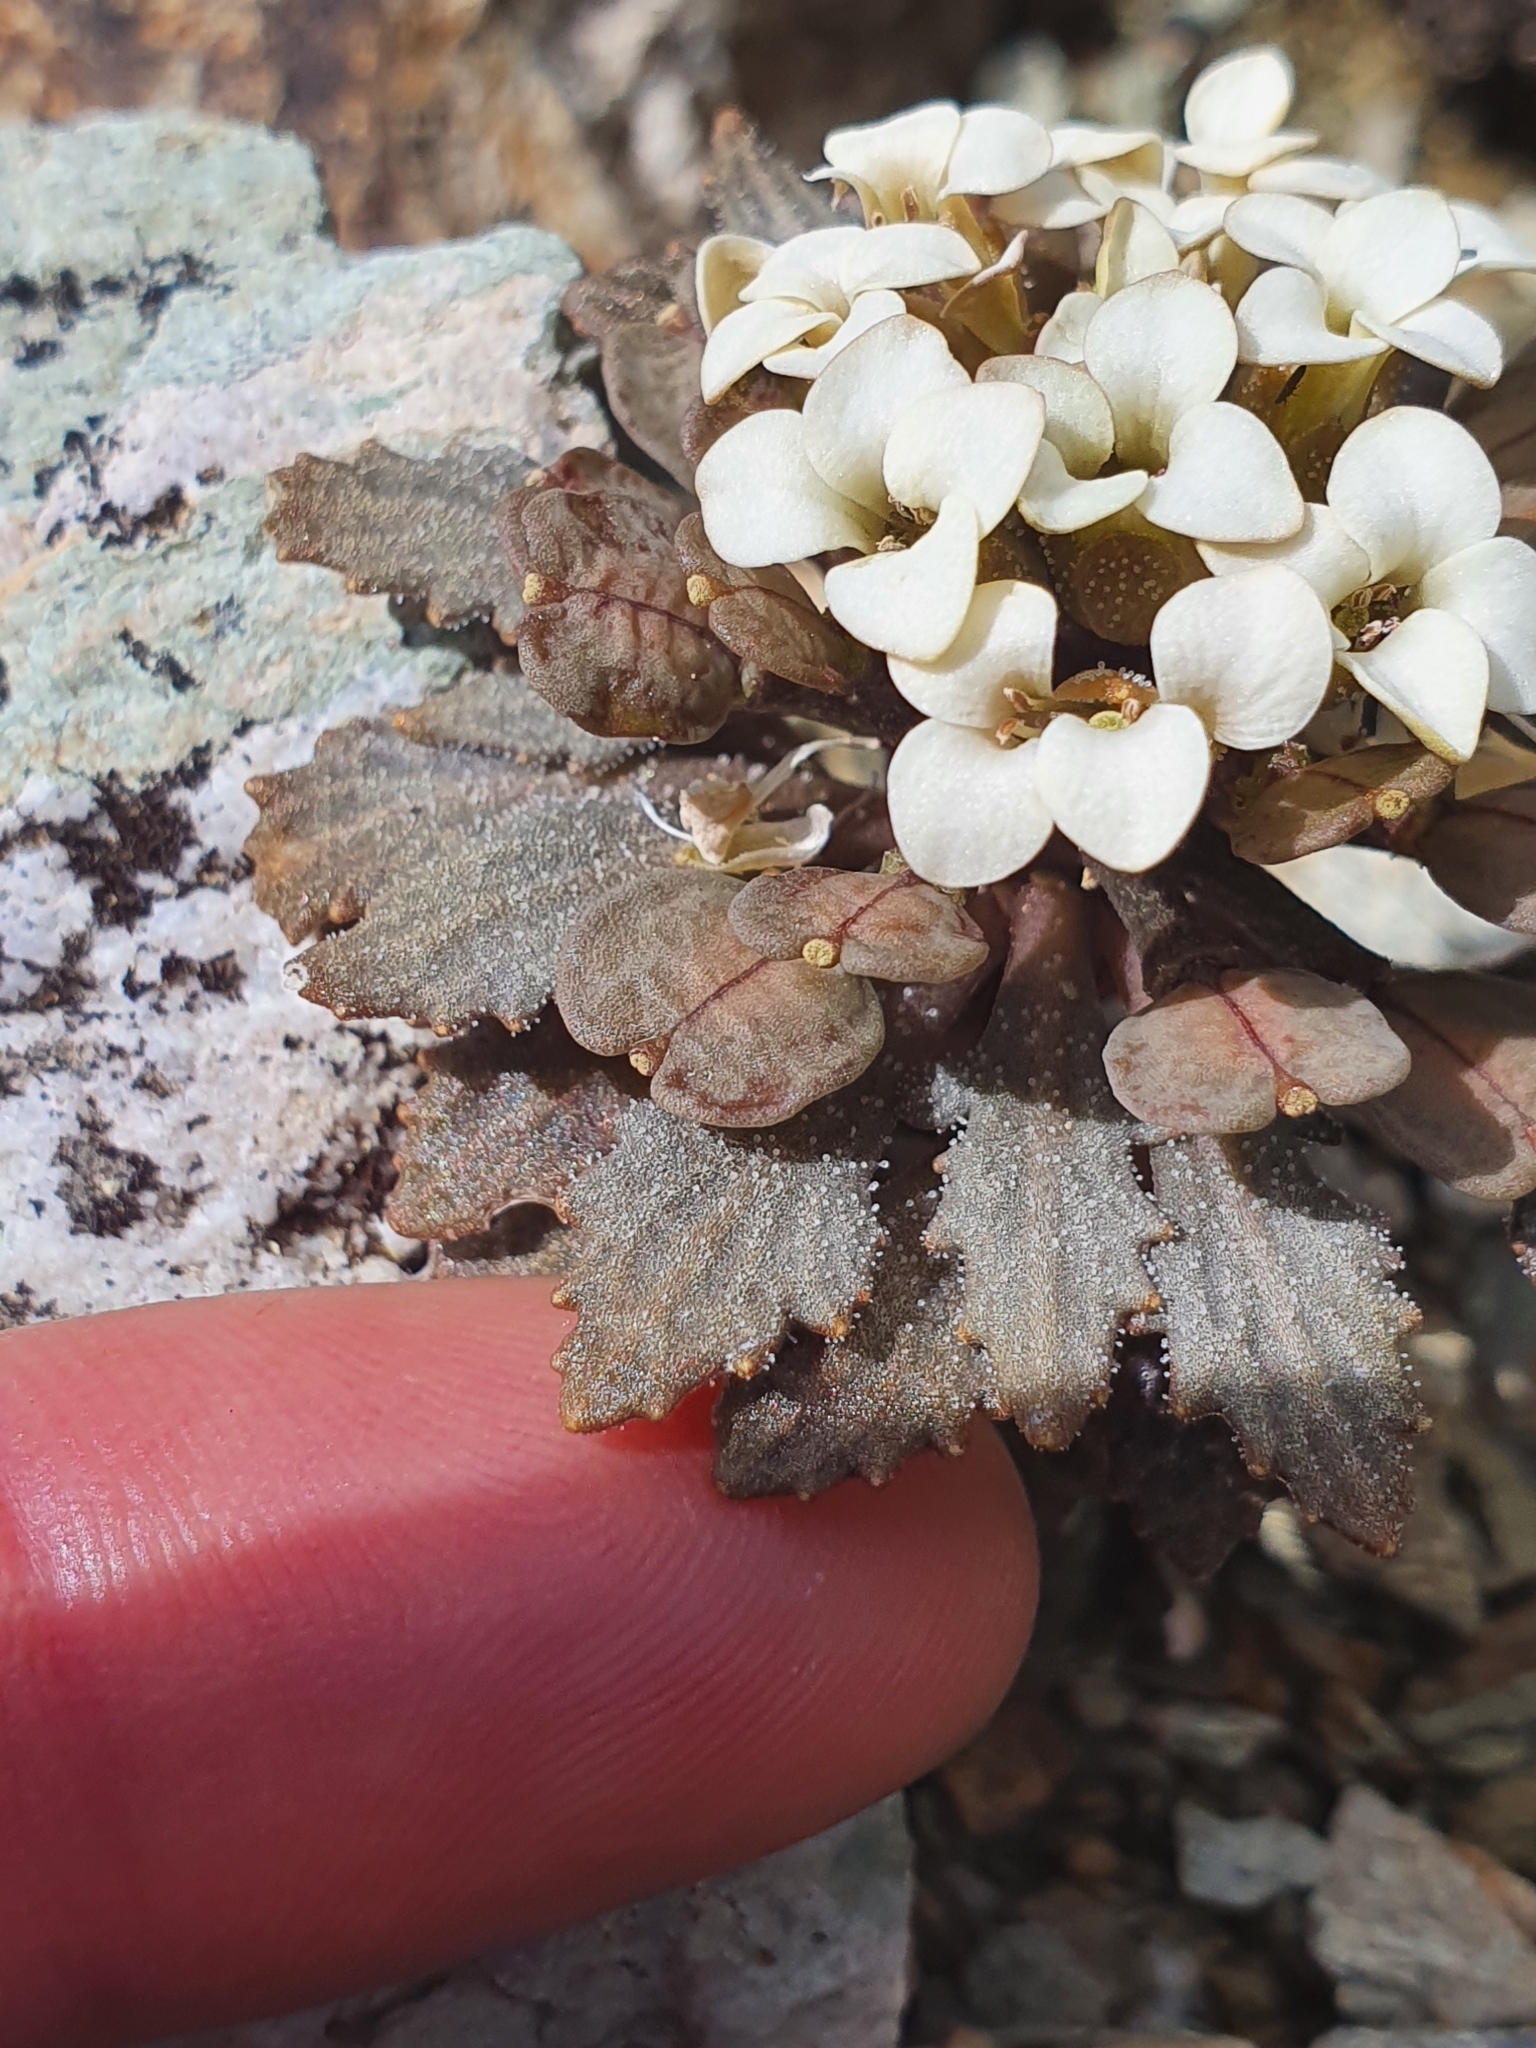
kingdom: Plantae
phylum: Tracheophyta
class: Magnoliopsida
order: Brassicales
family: Brassicaceae
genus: Notothlaspi
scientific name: Notothlaspi rosulatum
